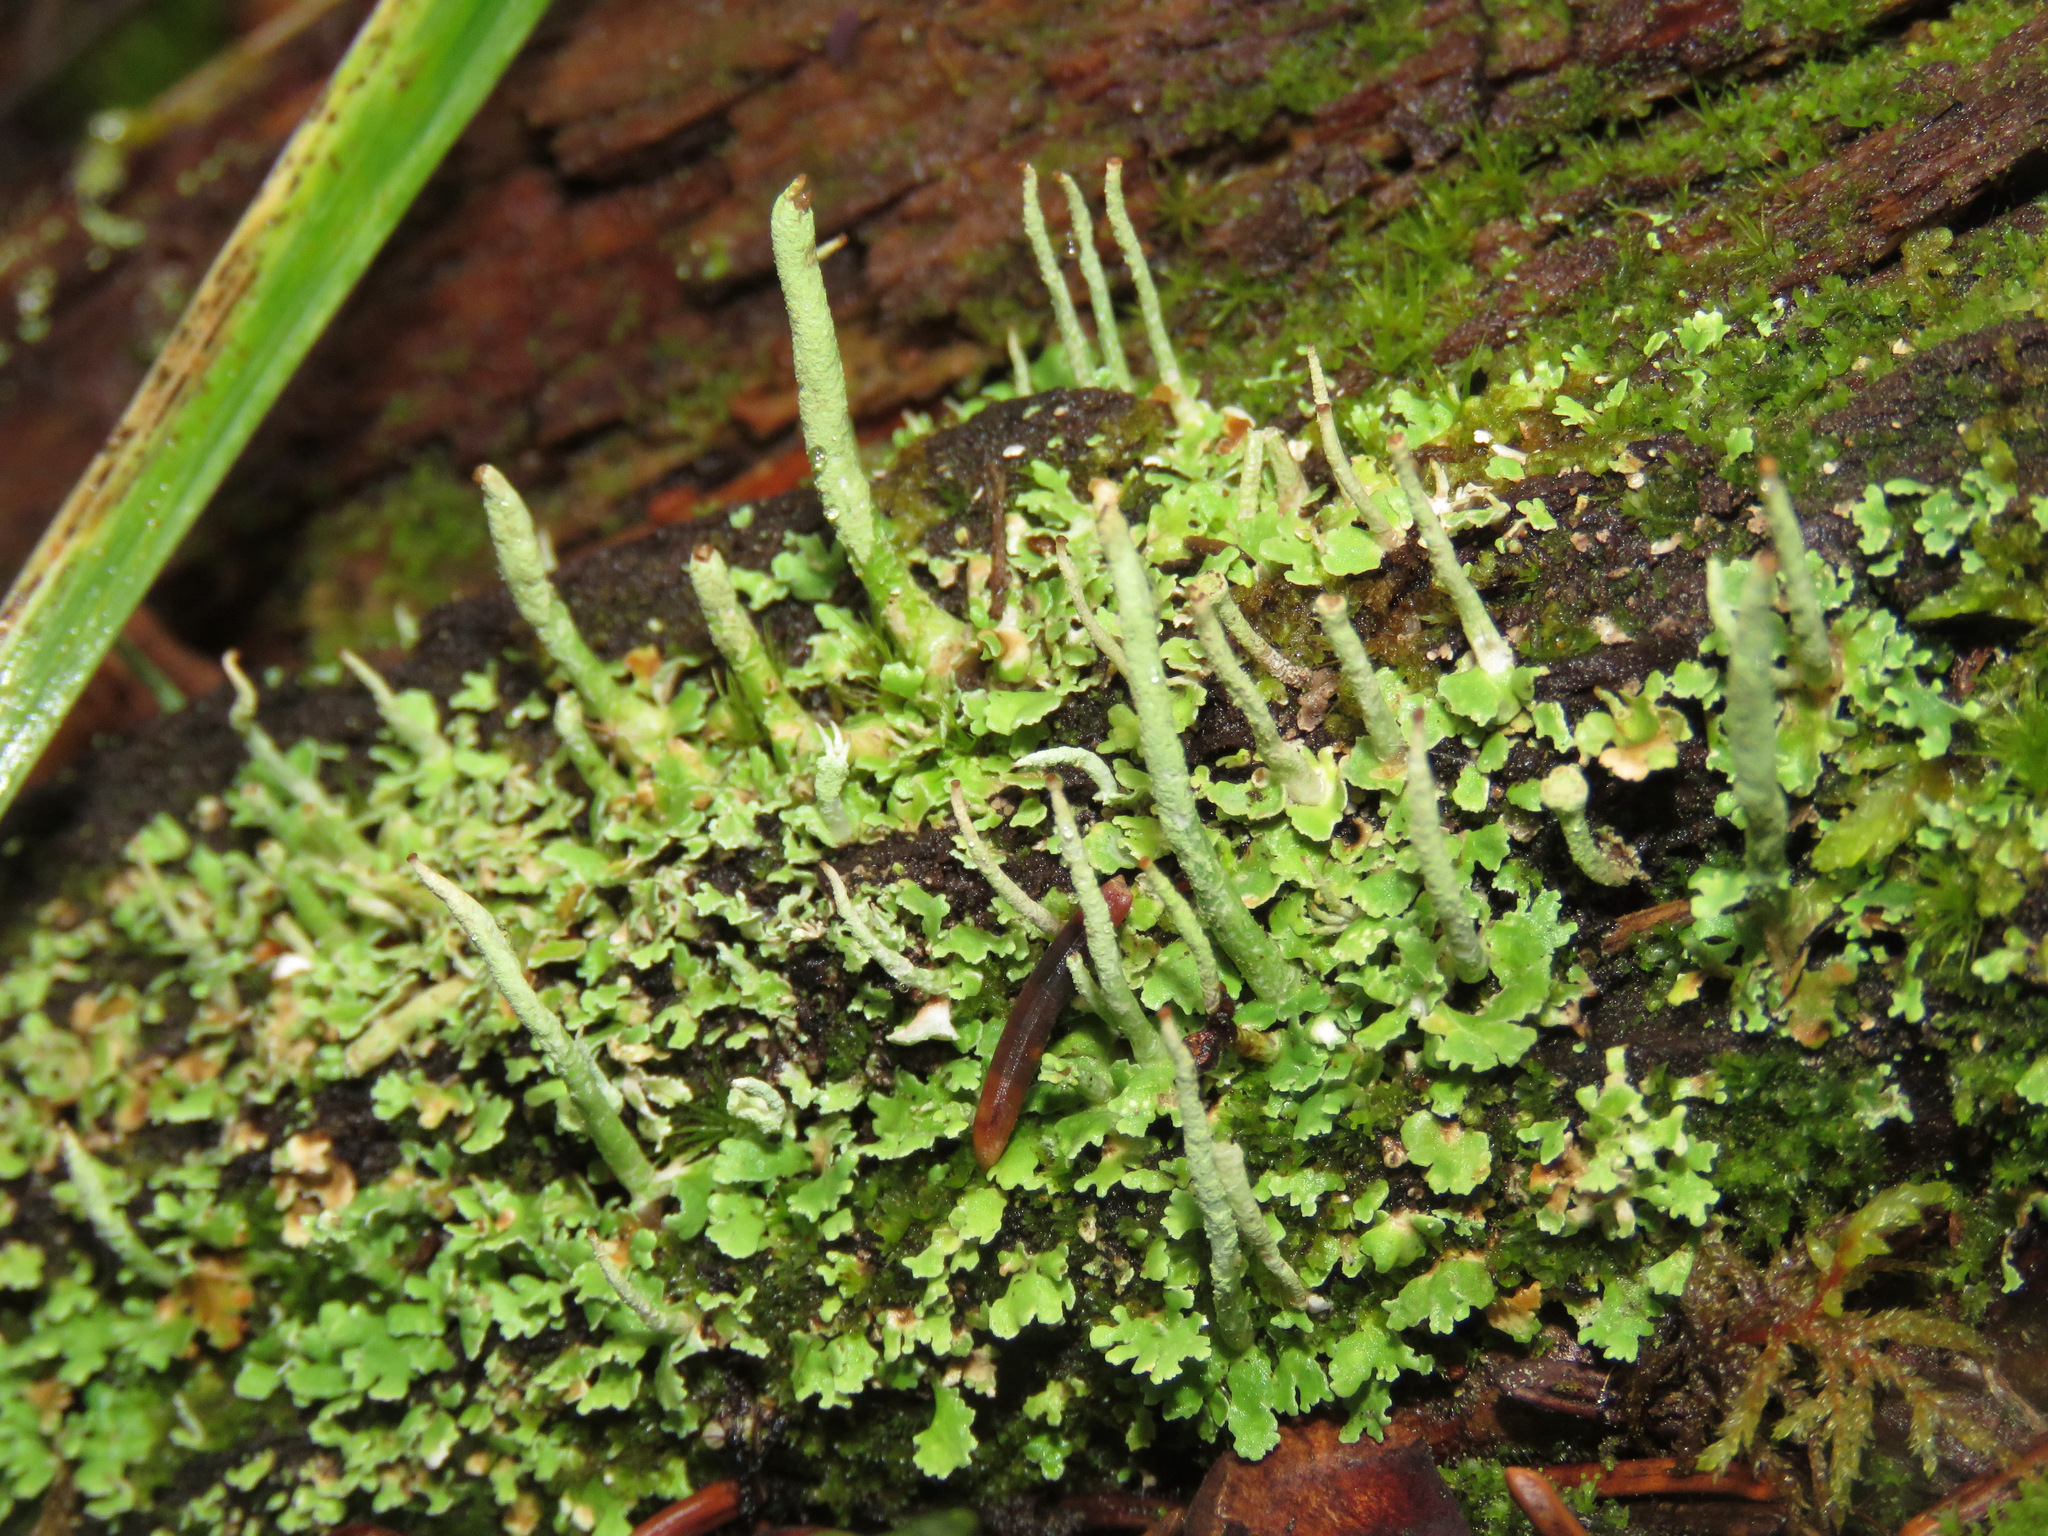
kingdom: Fungi
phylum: Ascomycota
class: Lecanoromycetes
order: Lecanorales
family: Cladoniaceae
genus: Cladonia
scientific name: Cladonia coniocraea
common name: Common powderhorn
